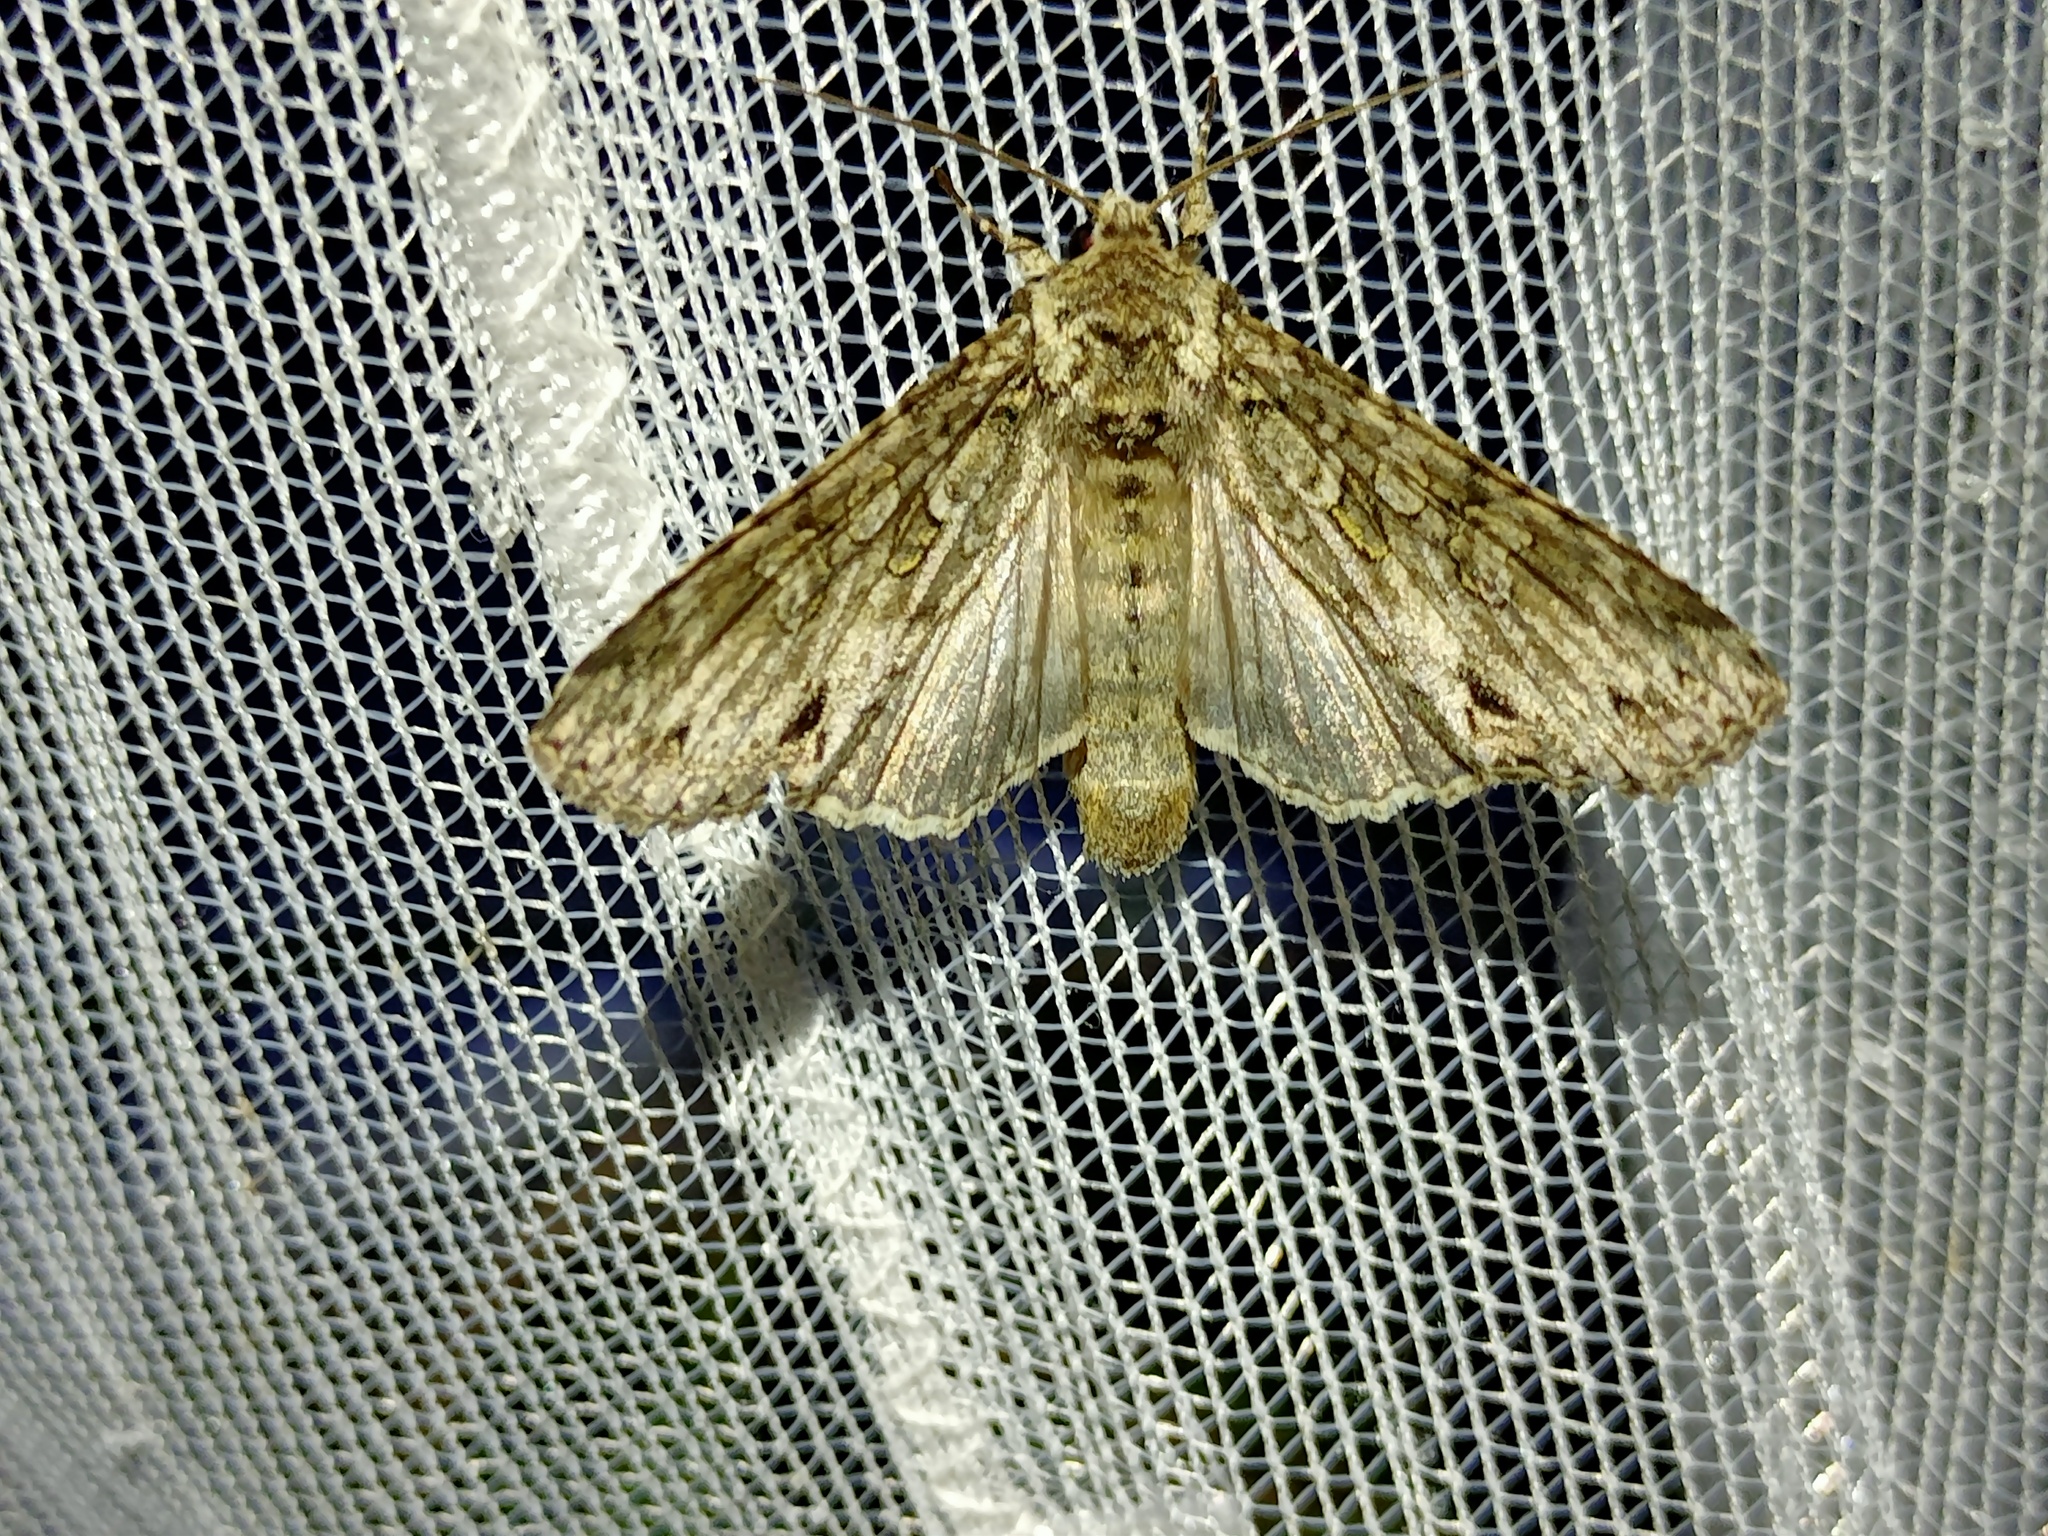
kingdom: Animalia
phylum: Arthropoda
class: Insecta
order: Lepidoptera
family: Noctuidae
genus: Polia
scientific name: Polia nebulosa
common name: Grey arches
